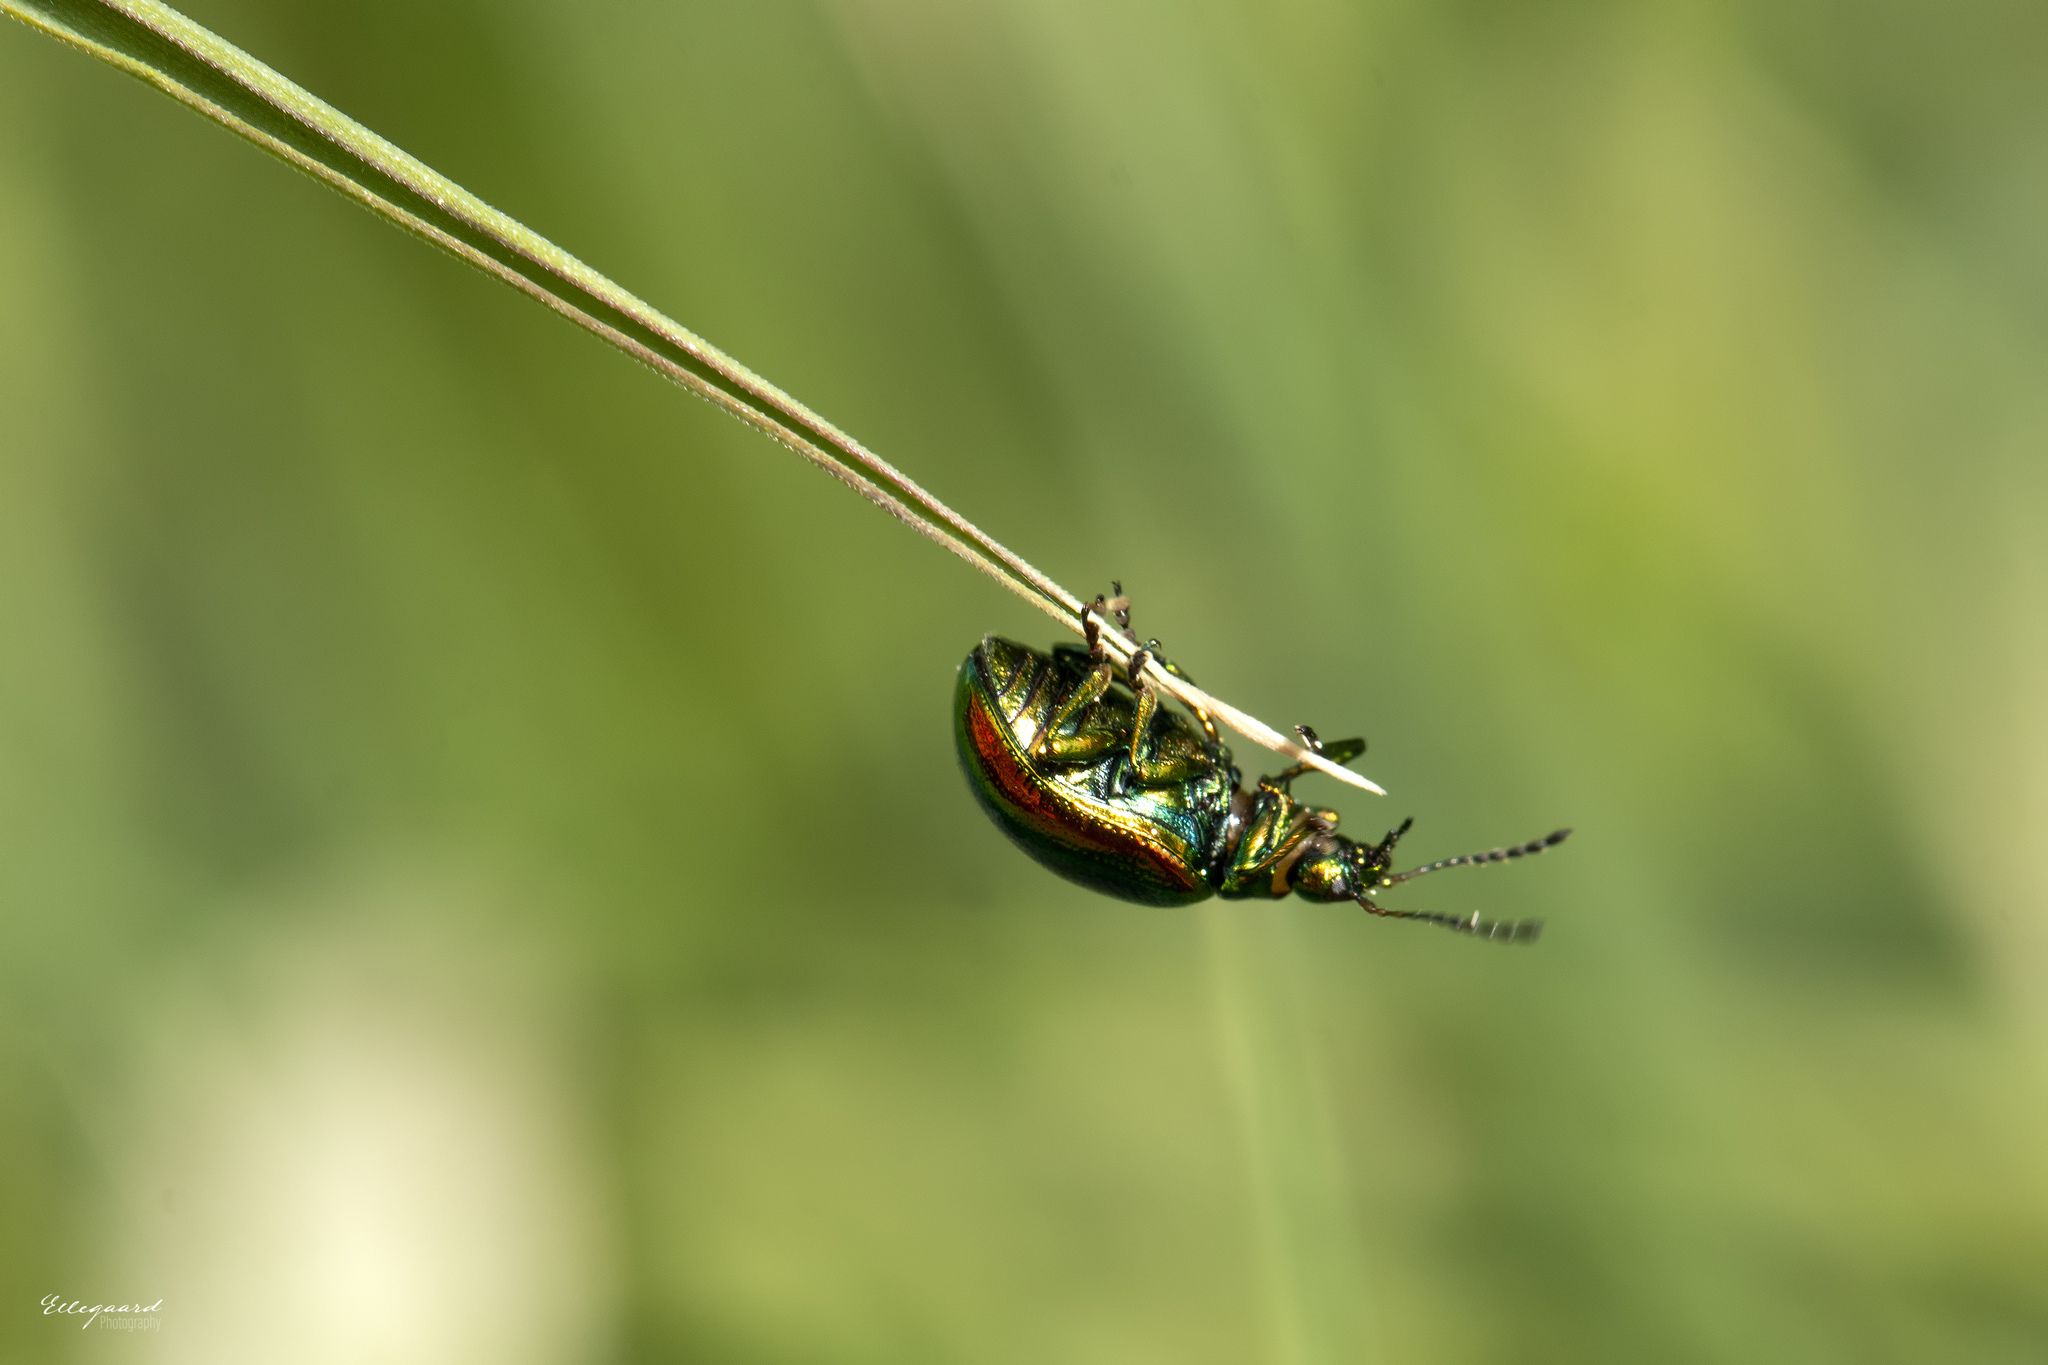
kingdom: Animalia
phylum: Arthropoda
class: Insecta
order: Coleoptera
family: Chrysomelidae
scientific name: Chrysomelidae
